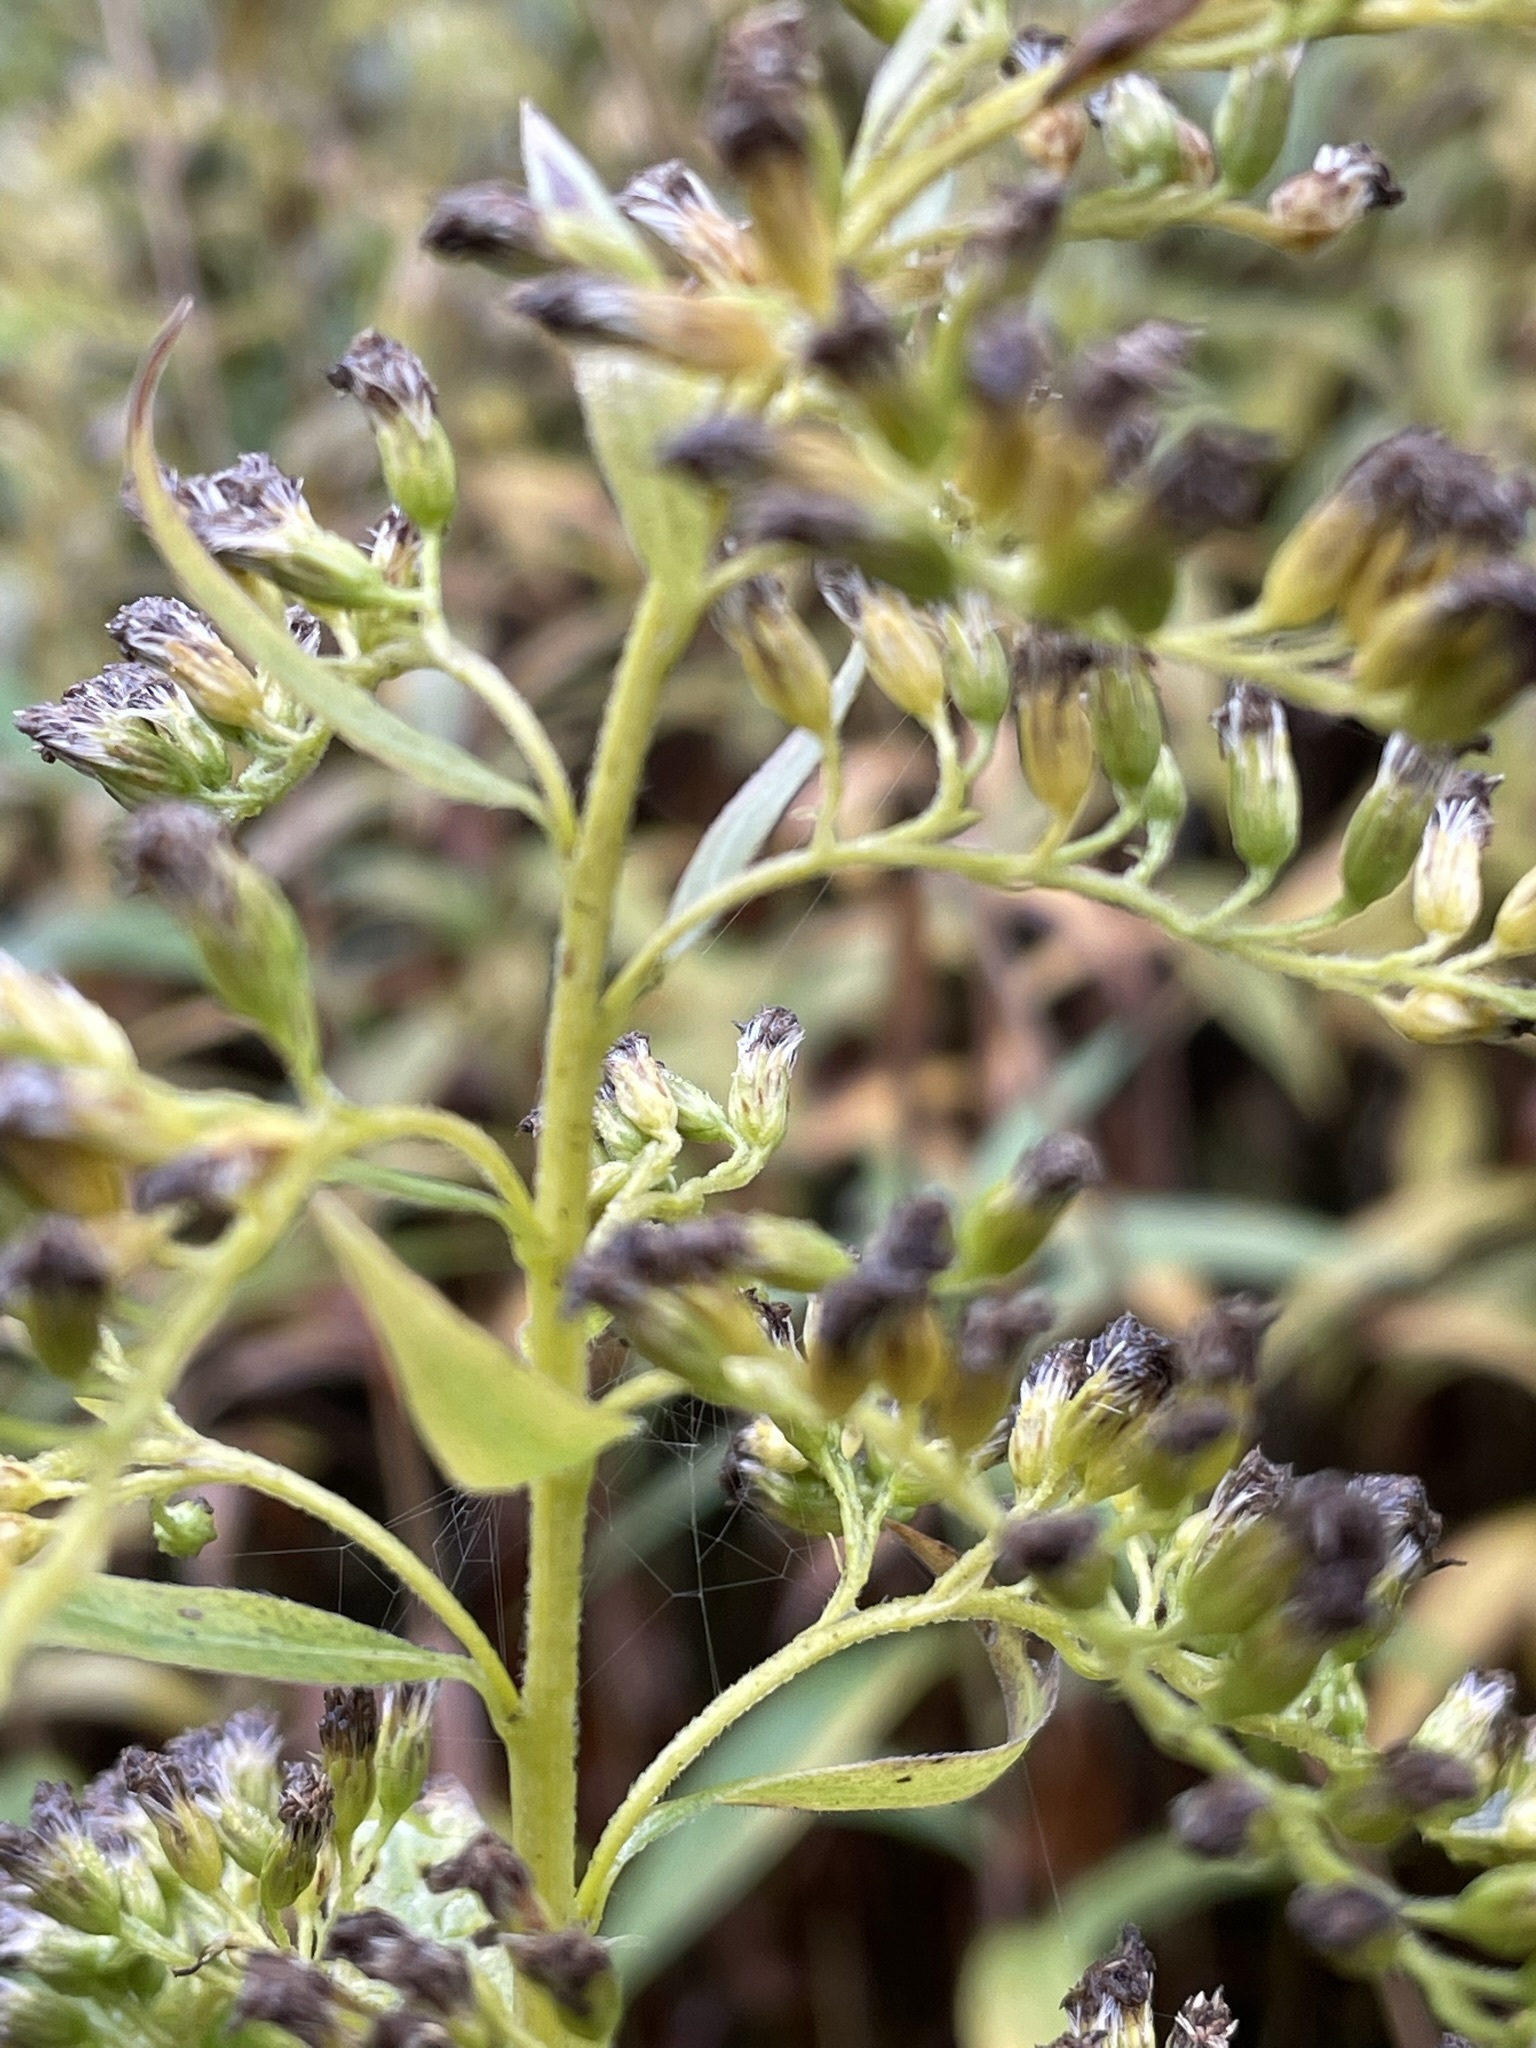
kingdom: Plantae
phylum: Tracheophyta
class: Magnoliopsida
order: Asterales
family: Asteraceae
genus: Solidago
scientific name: Solidago gigantea
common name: Giant goldenrod
